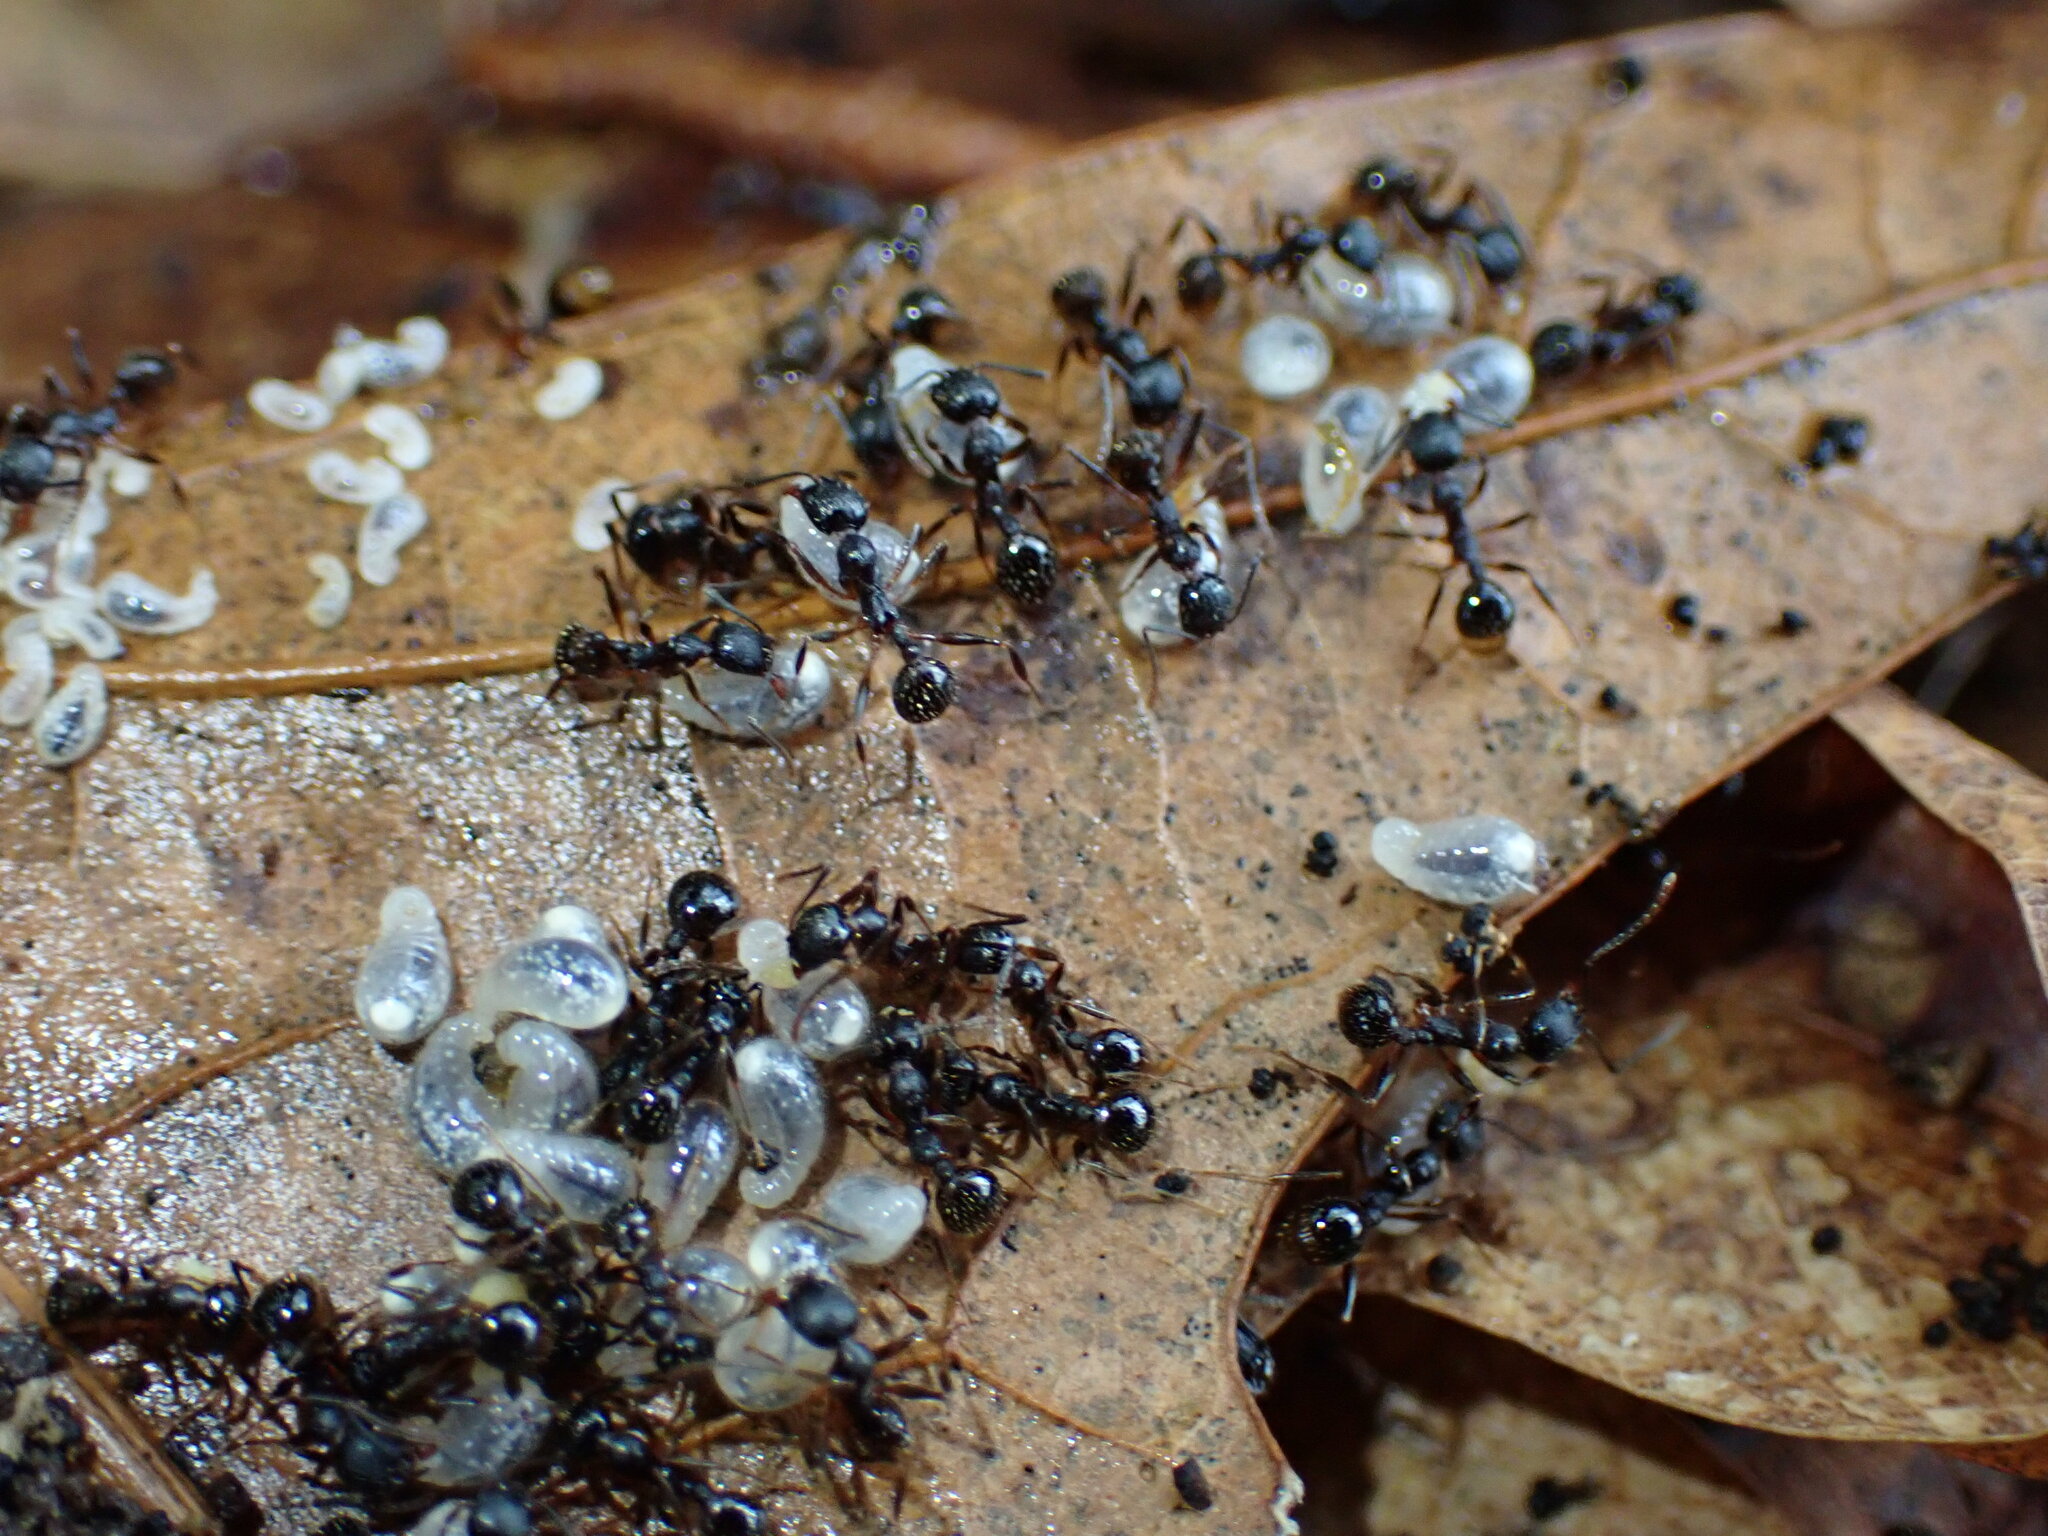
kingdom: Animalia
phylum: Arthropoda
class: Insecta
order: Hymenoptera
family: Formicidae
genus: Aphaenogaster
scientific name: Aphaenogaster picea
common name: Pitch-black collared ant
